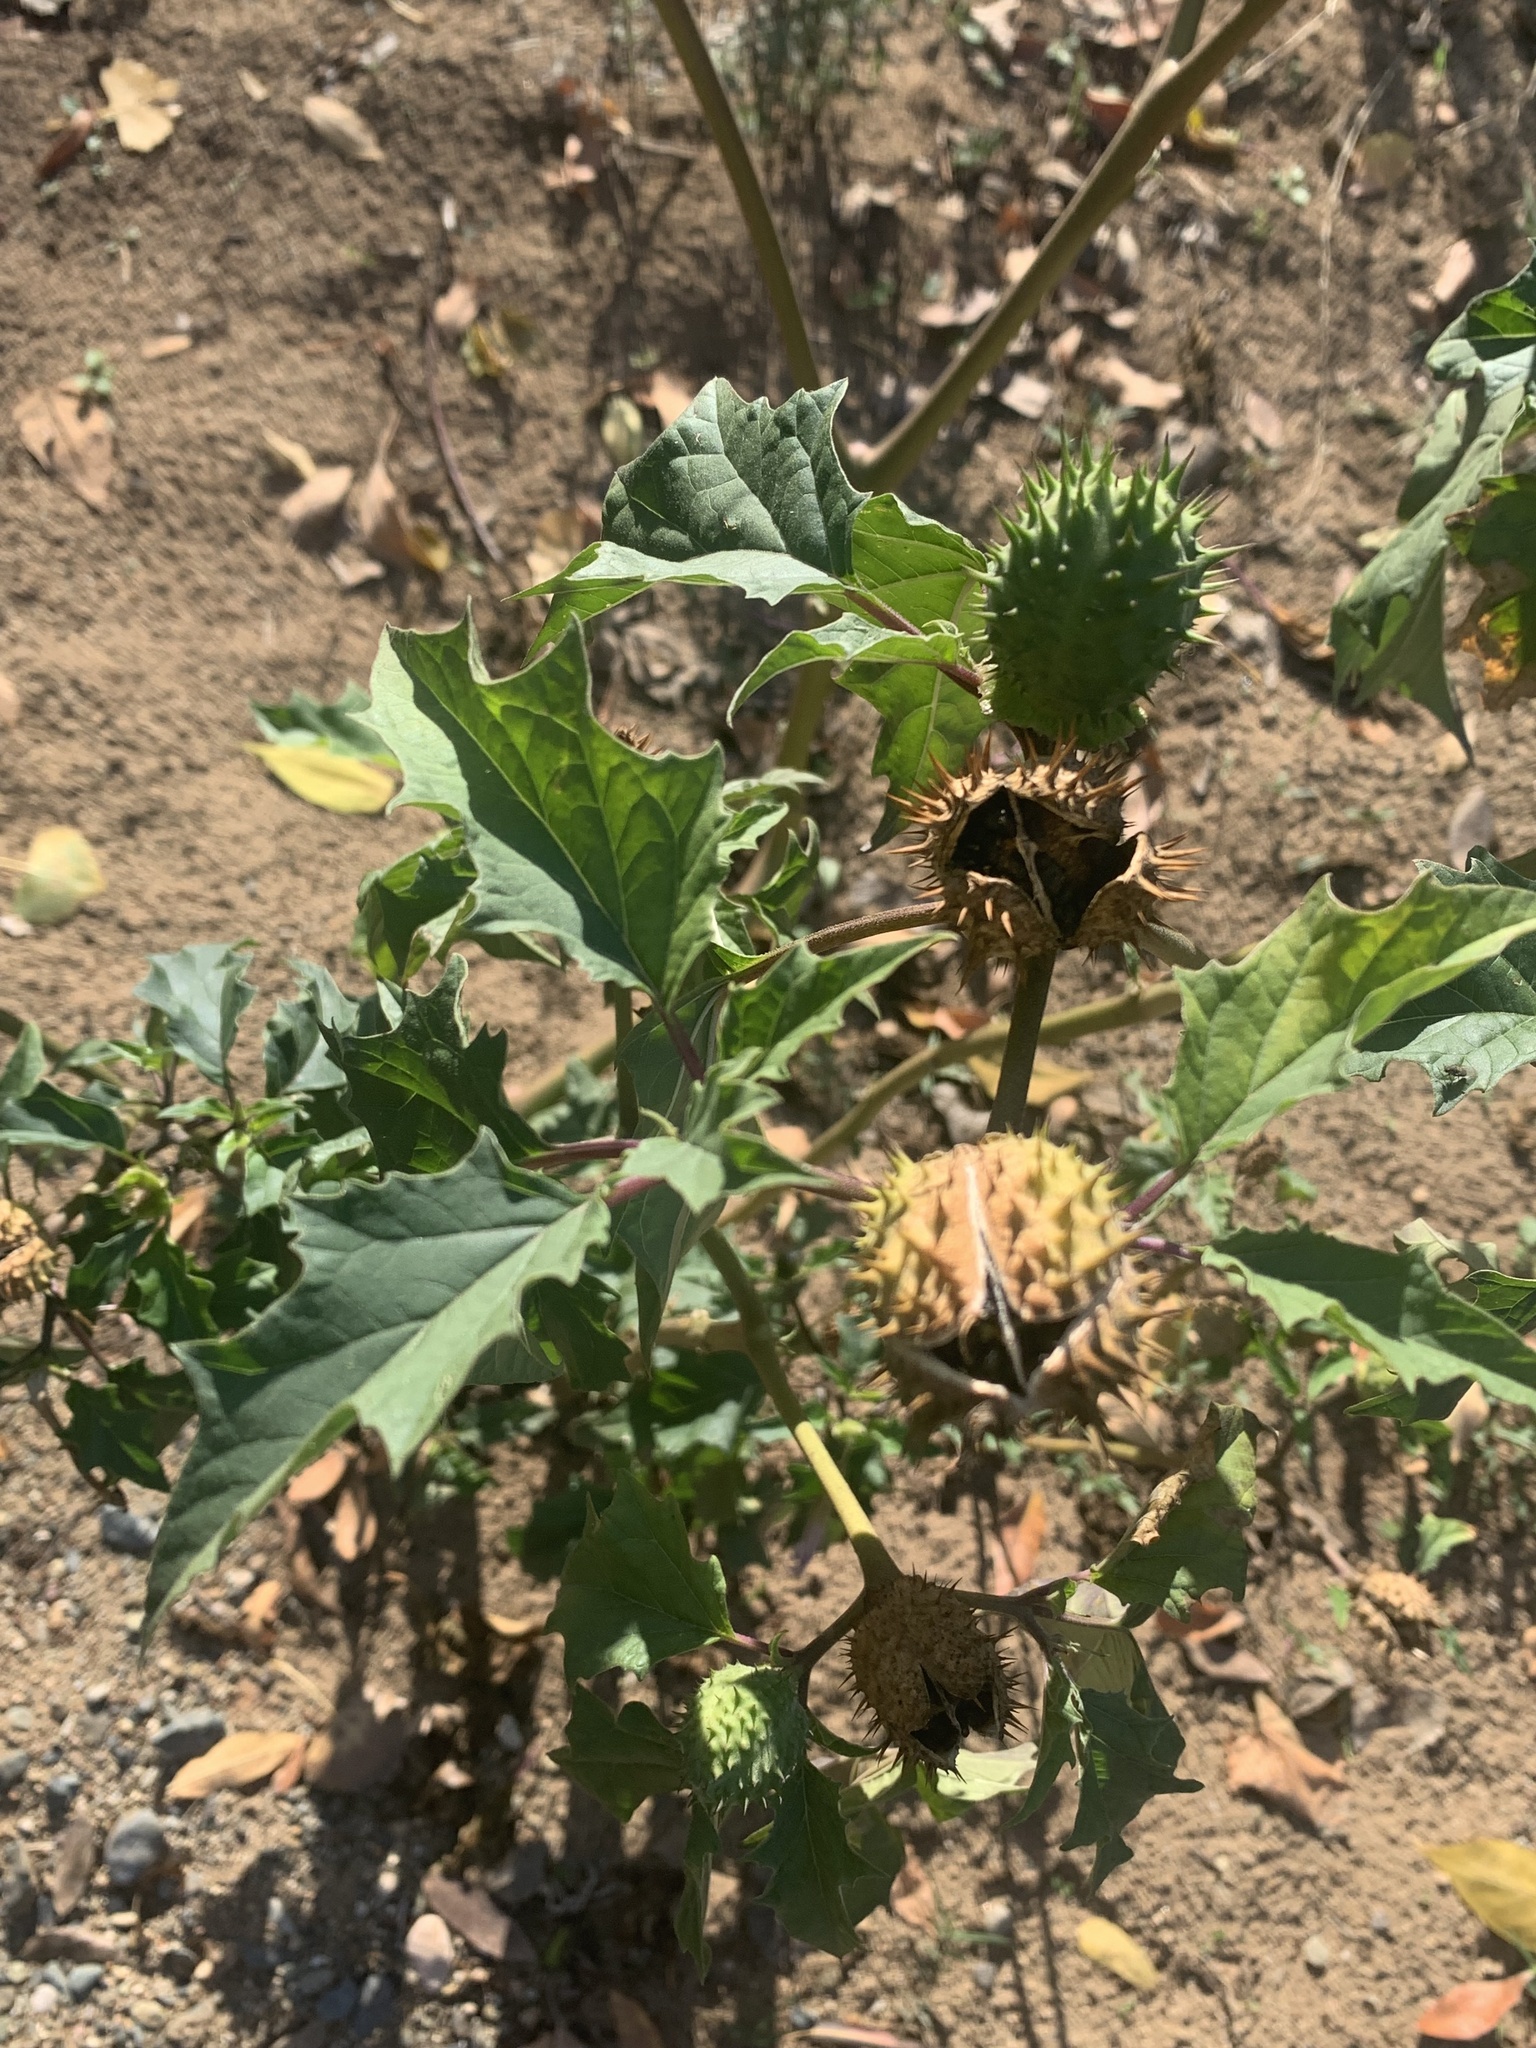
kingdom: Plantae
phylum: Tracheophyta
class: Magnoliopsida
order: Solanales
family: Solanaceae
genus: Datura
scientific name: Datura stramonium
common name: Thorn-apple
